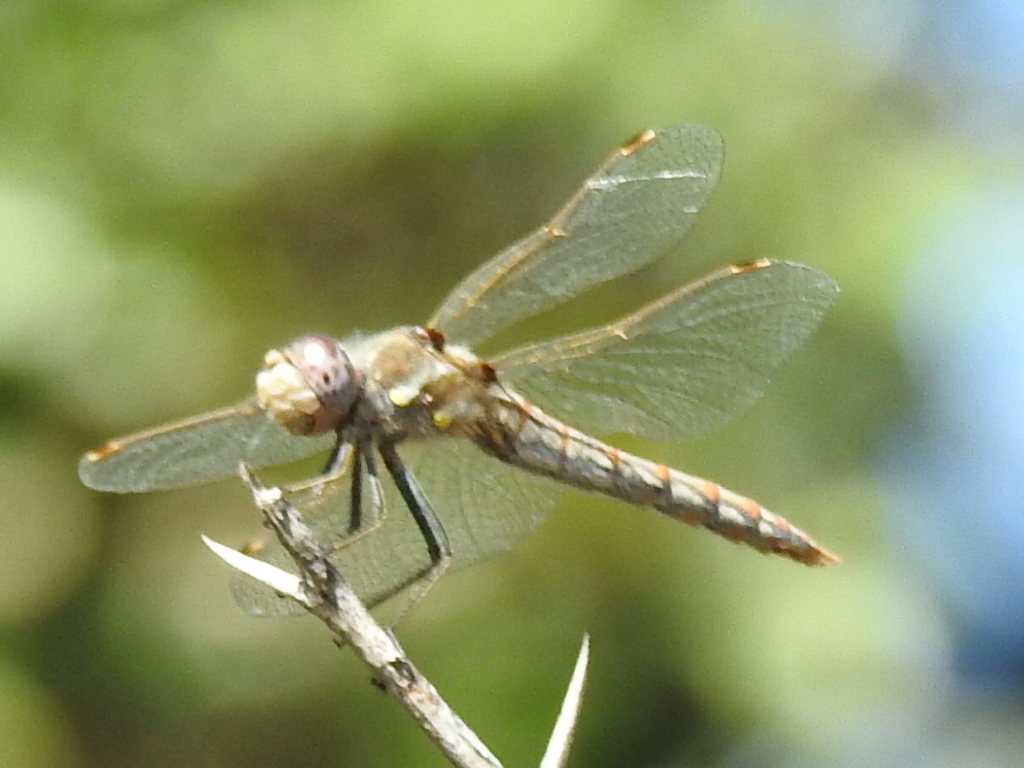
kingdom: Animalia
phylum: Arthropoda
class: Insecta
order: Odonata
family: Libellulidae
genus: Sympetrum
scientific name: Sympetrum corruptum
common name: Variegated meadowhawk
